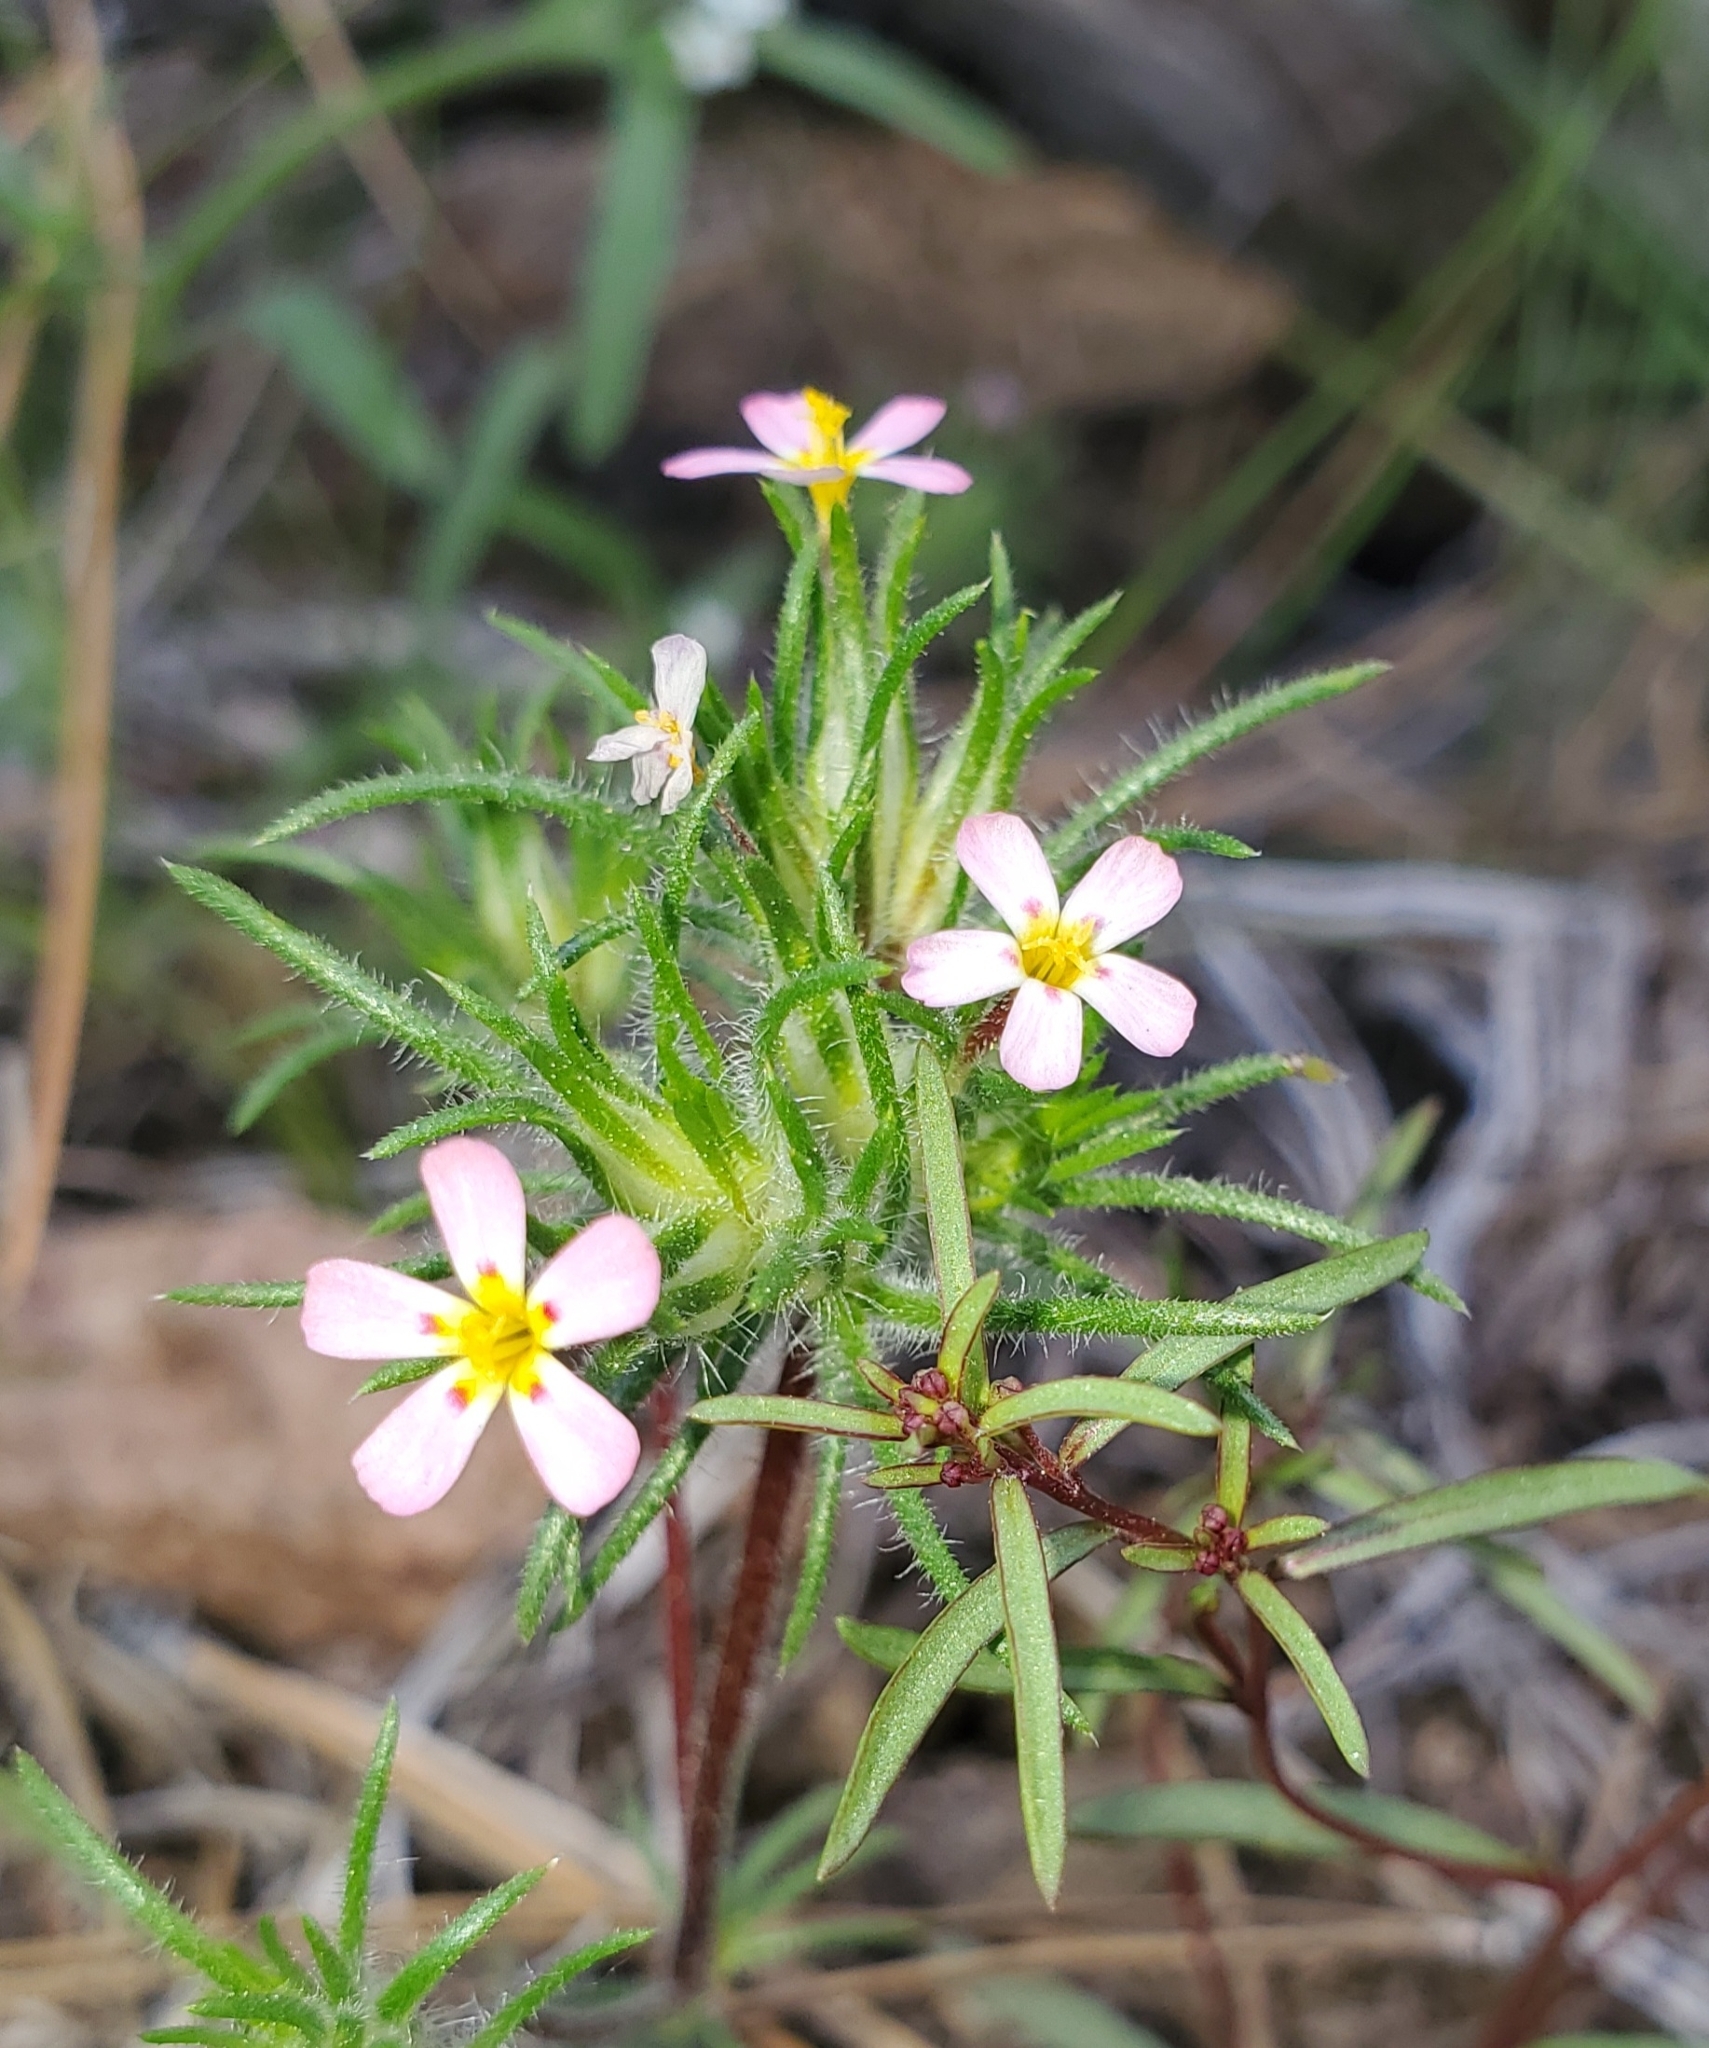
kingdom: Plantae
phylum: Tracheophyta
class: Magnoliopsida
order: Ericales
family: Polemoniaceae
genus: Leptosiphon
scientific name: Leptosiphon ciliatus
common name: Whiskerbrush
